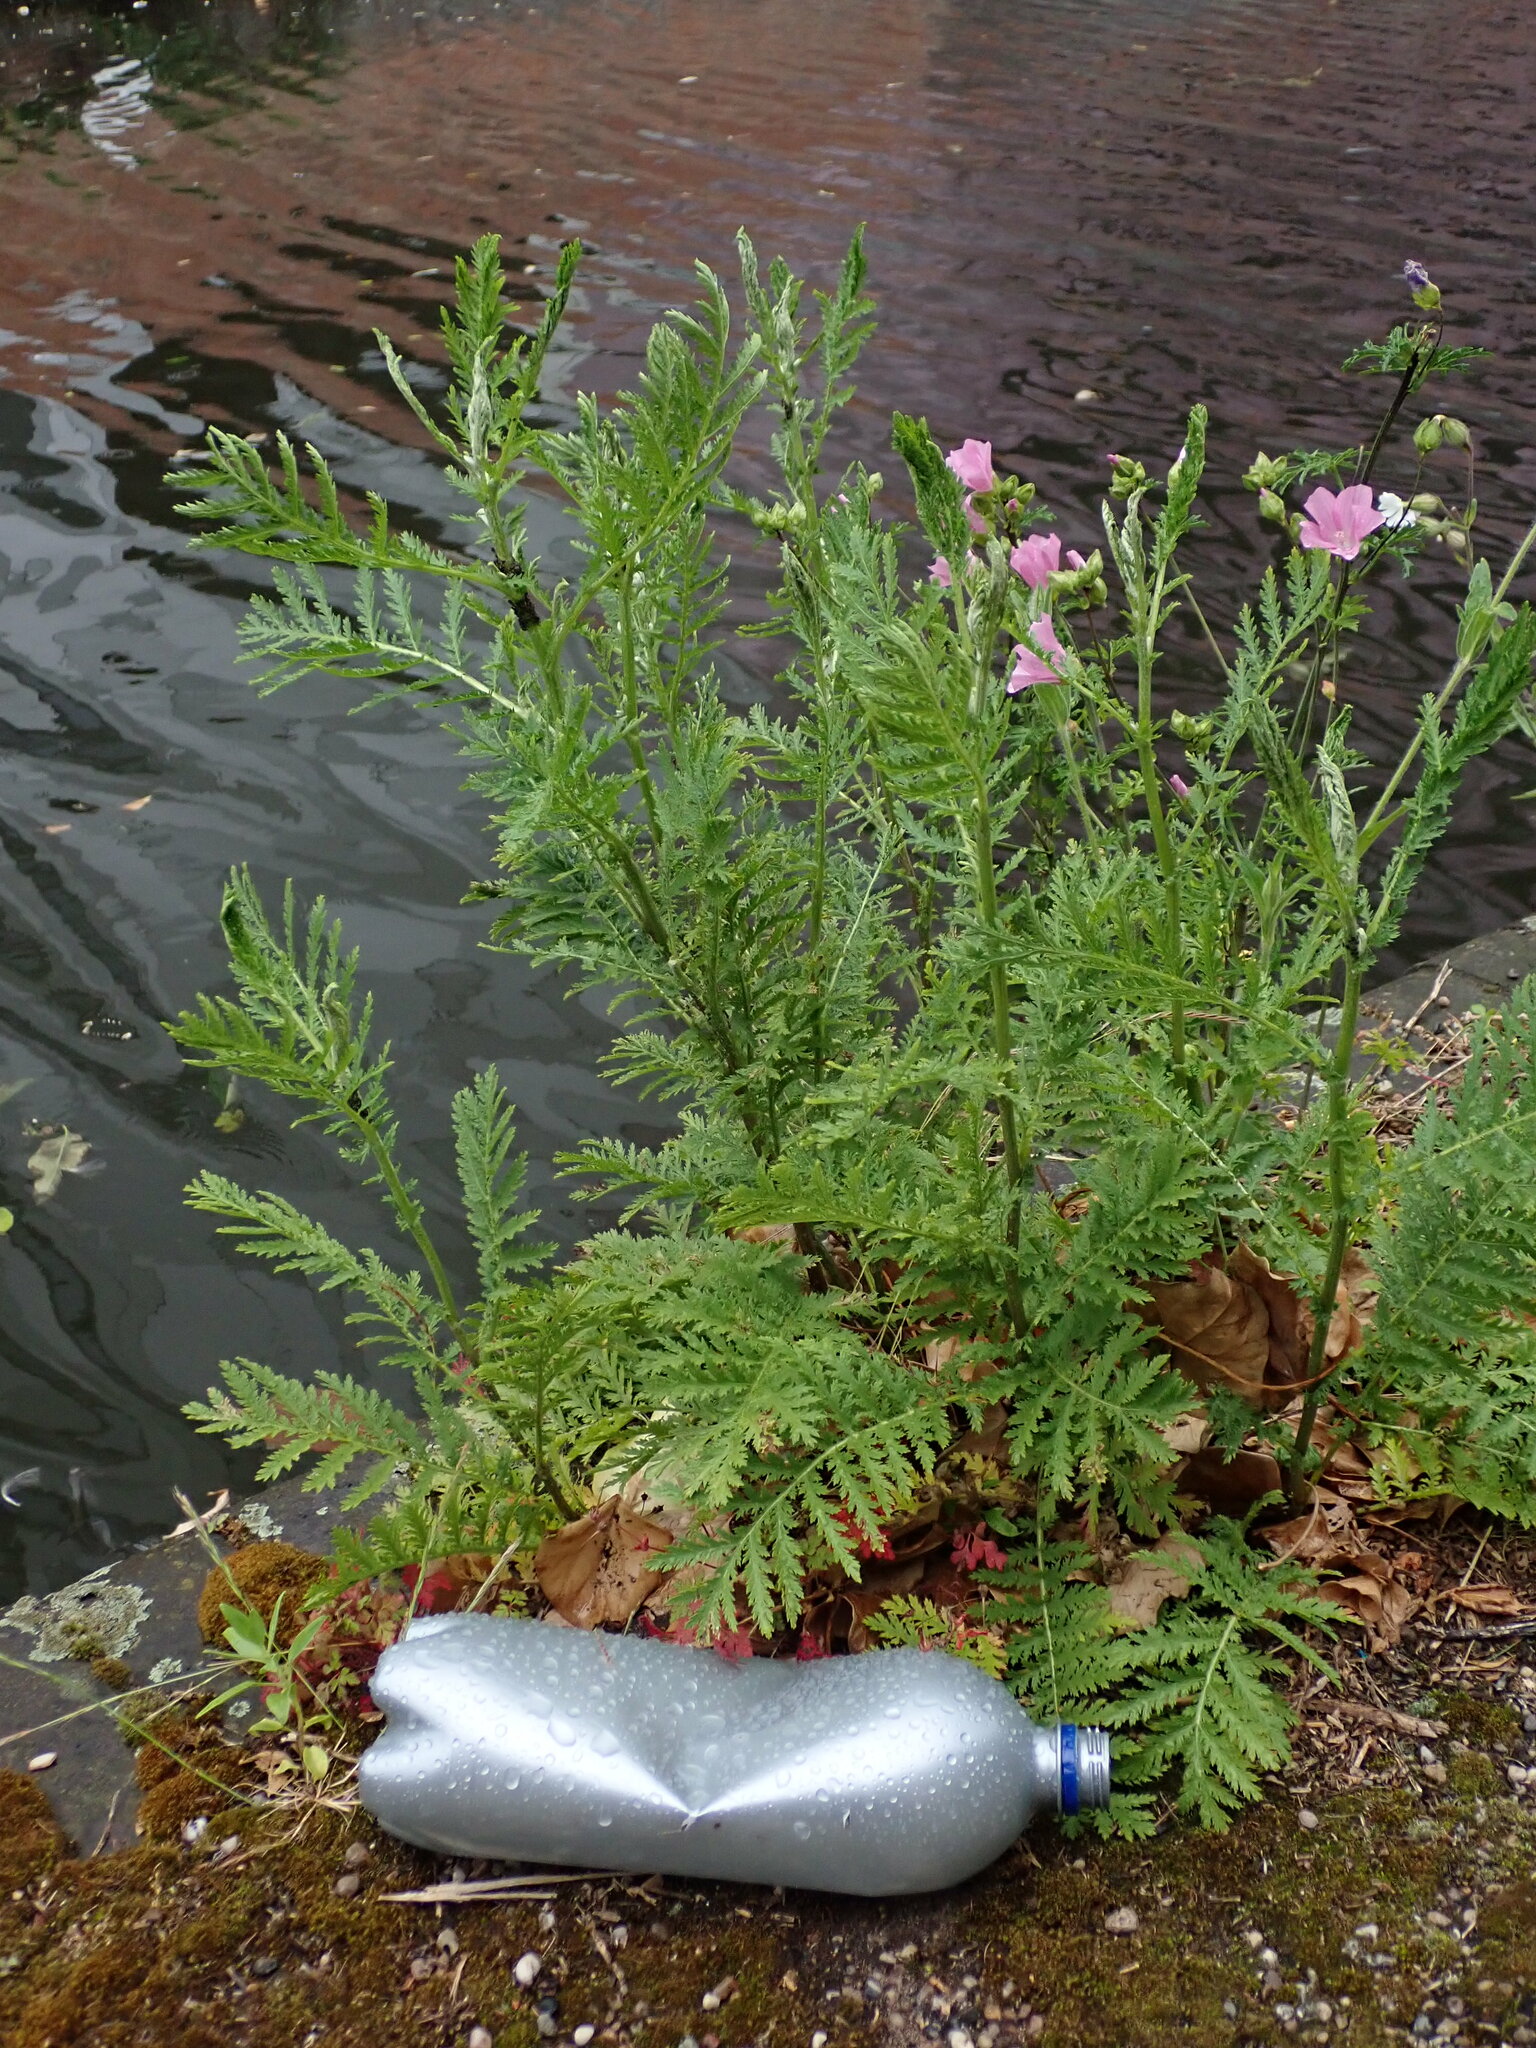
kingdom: Plantae
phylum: Tracheophyta
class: Magnoliopsida
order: Asterales
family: Asteraceae
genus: Tanacetum
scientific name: Tanacetum vulgare
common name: Common tansy
